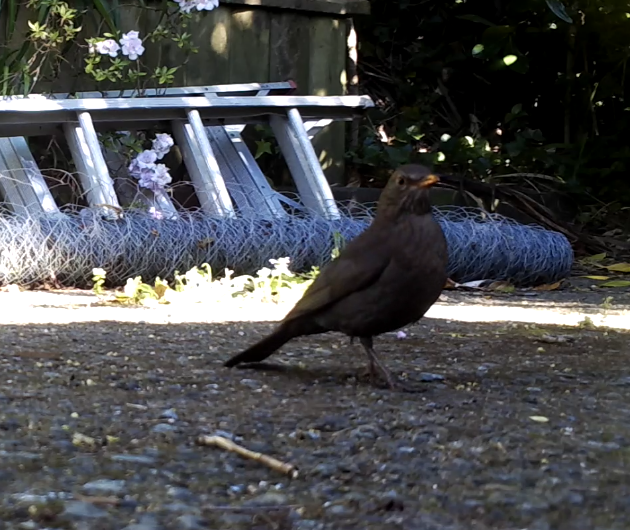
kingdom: Animalia
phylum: Chordata
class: Aves
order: Passeriformes
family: Turdidae
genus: Turdus
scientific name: Turdus merula
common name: Common blackbird
